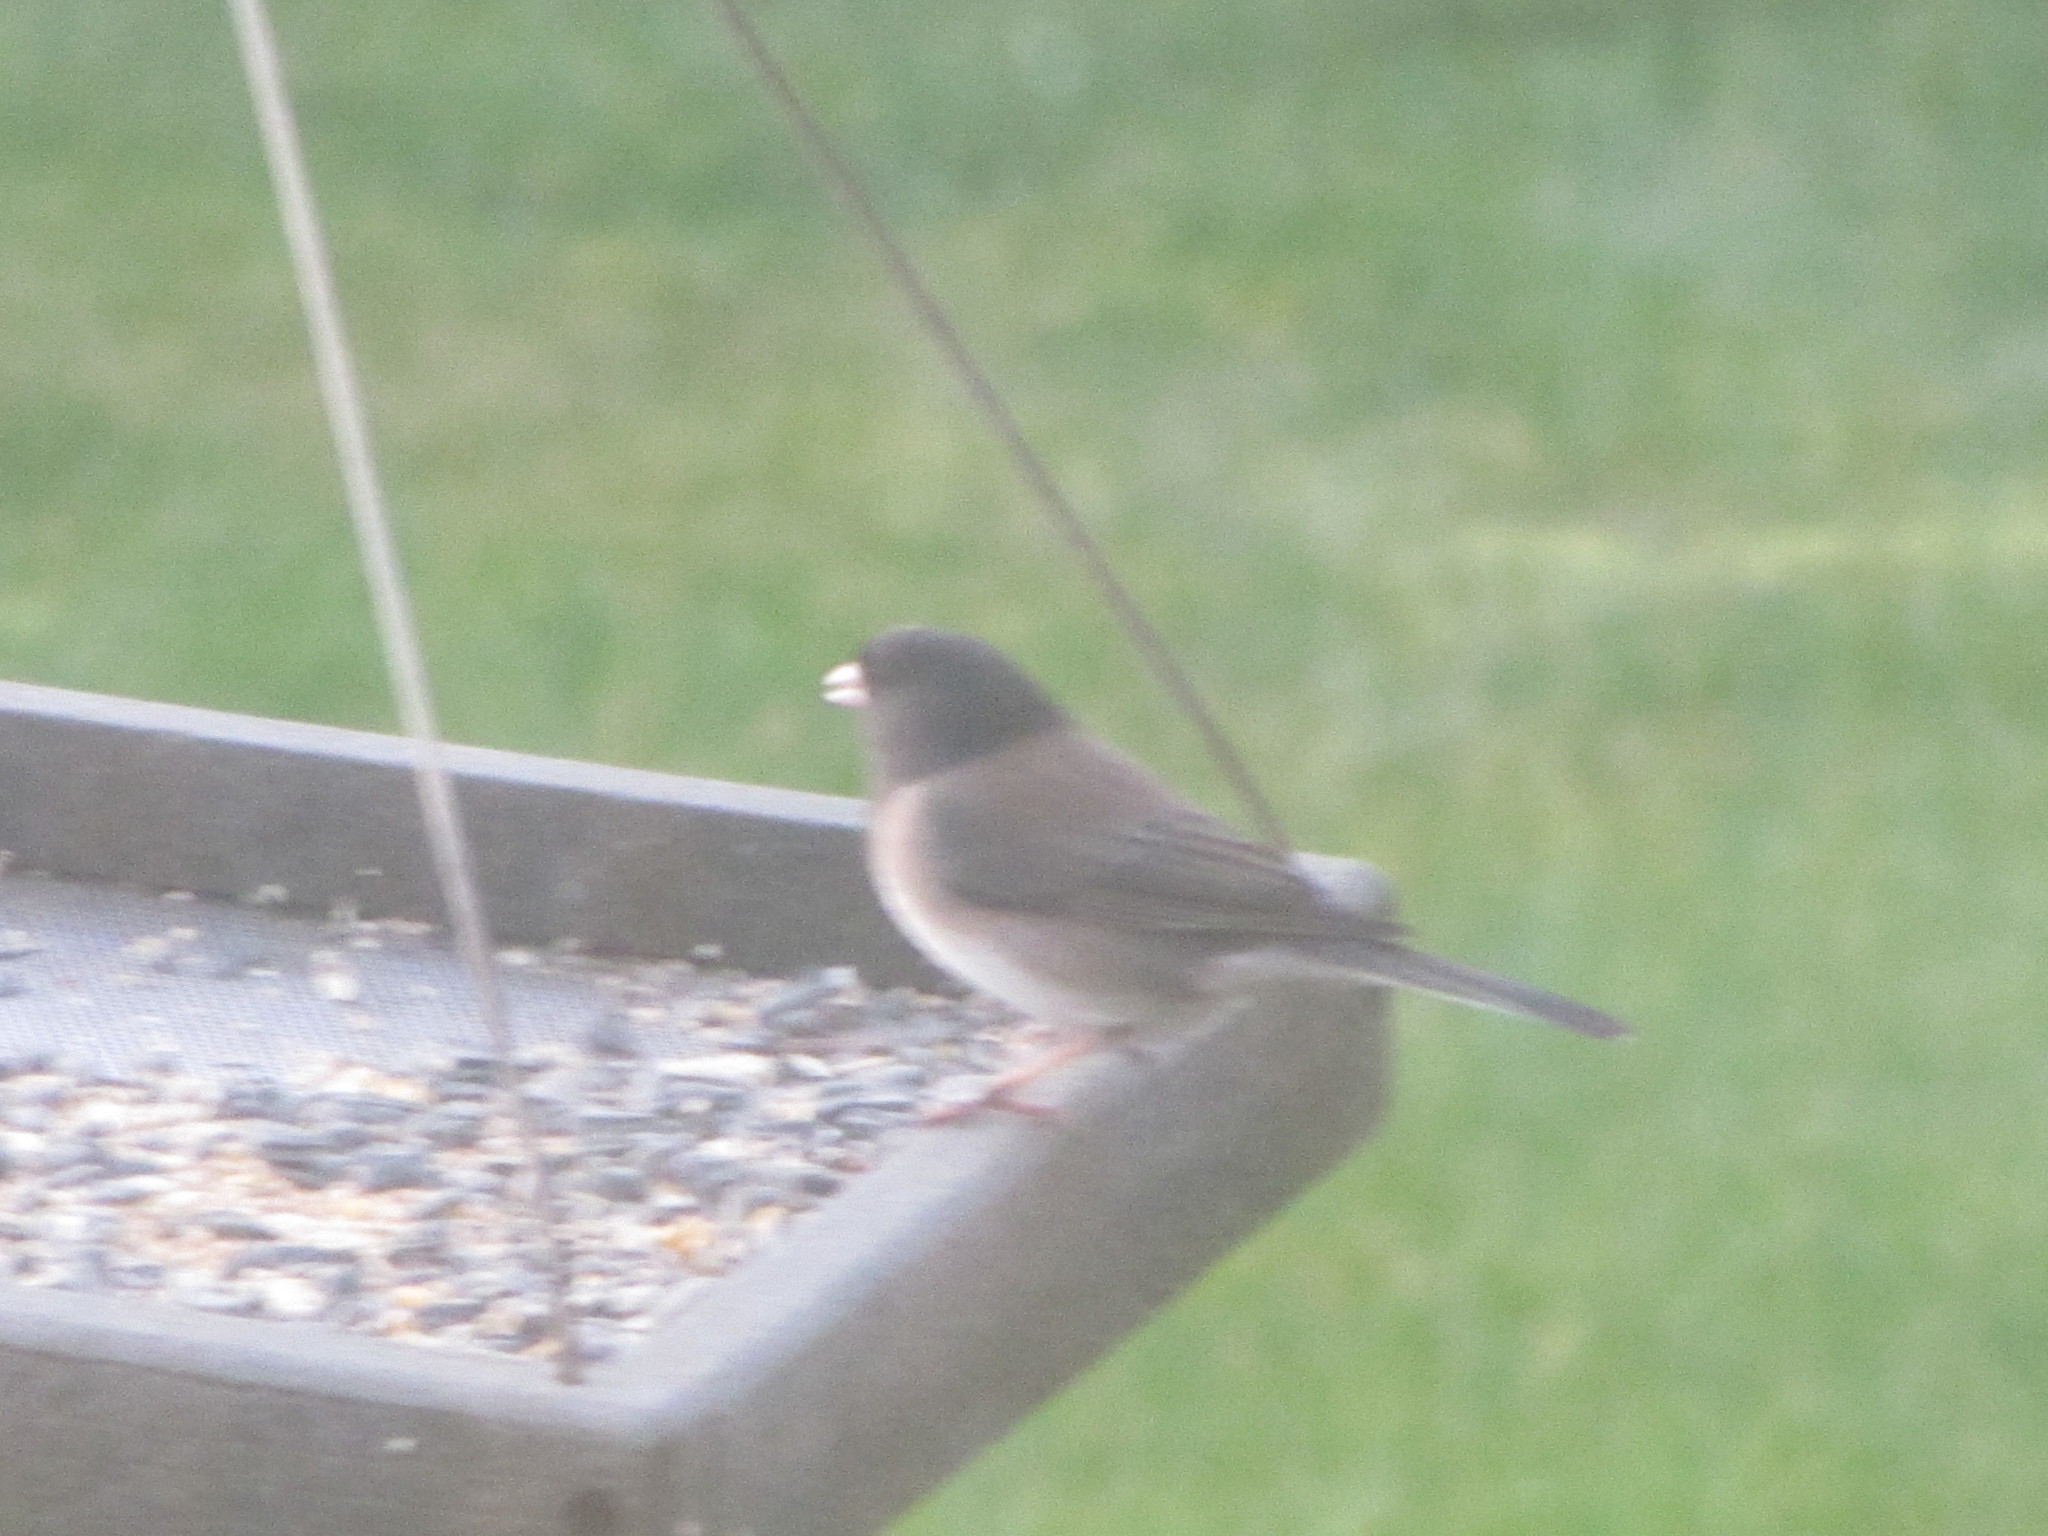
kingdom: Animalia
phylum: Chordata
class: Aves
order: Passeriformes
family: Passerellidae
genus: Junco
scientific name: Junco hyemalis
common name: Dark-eyed junco
